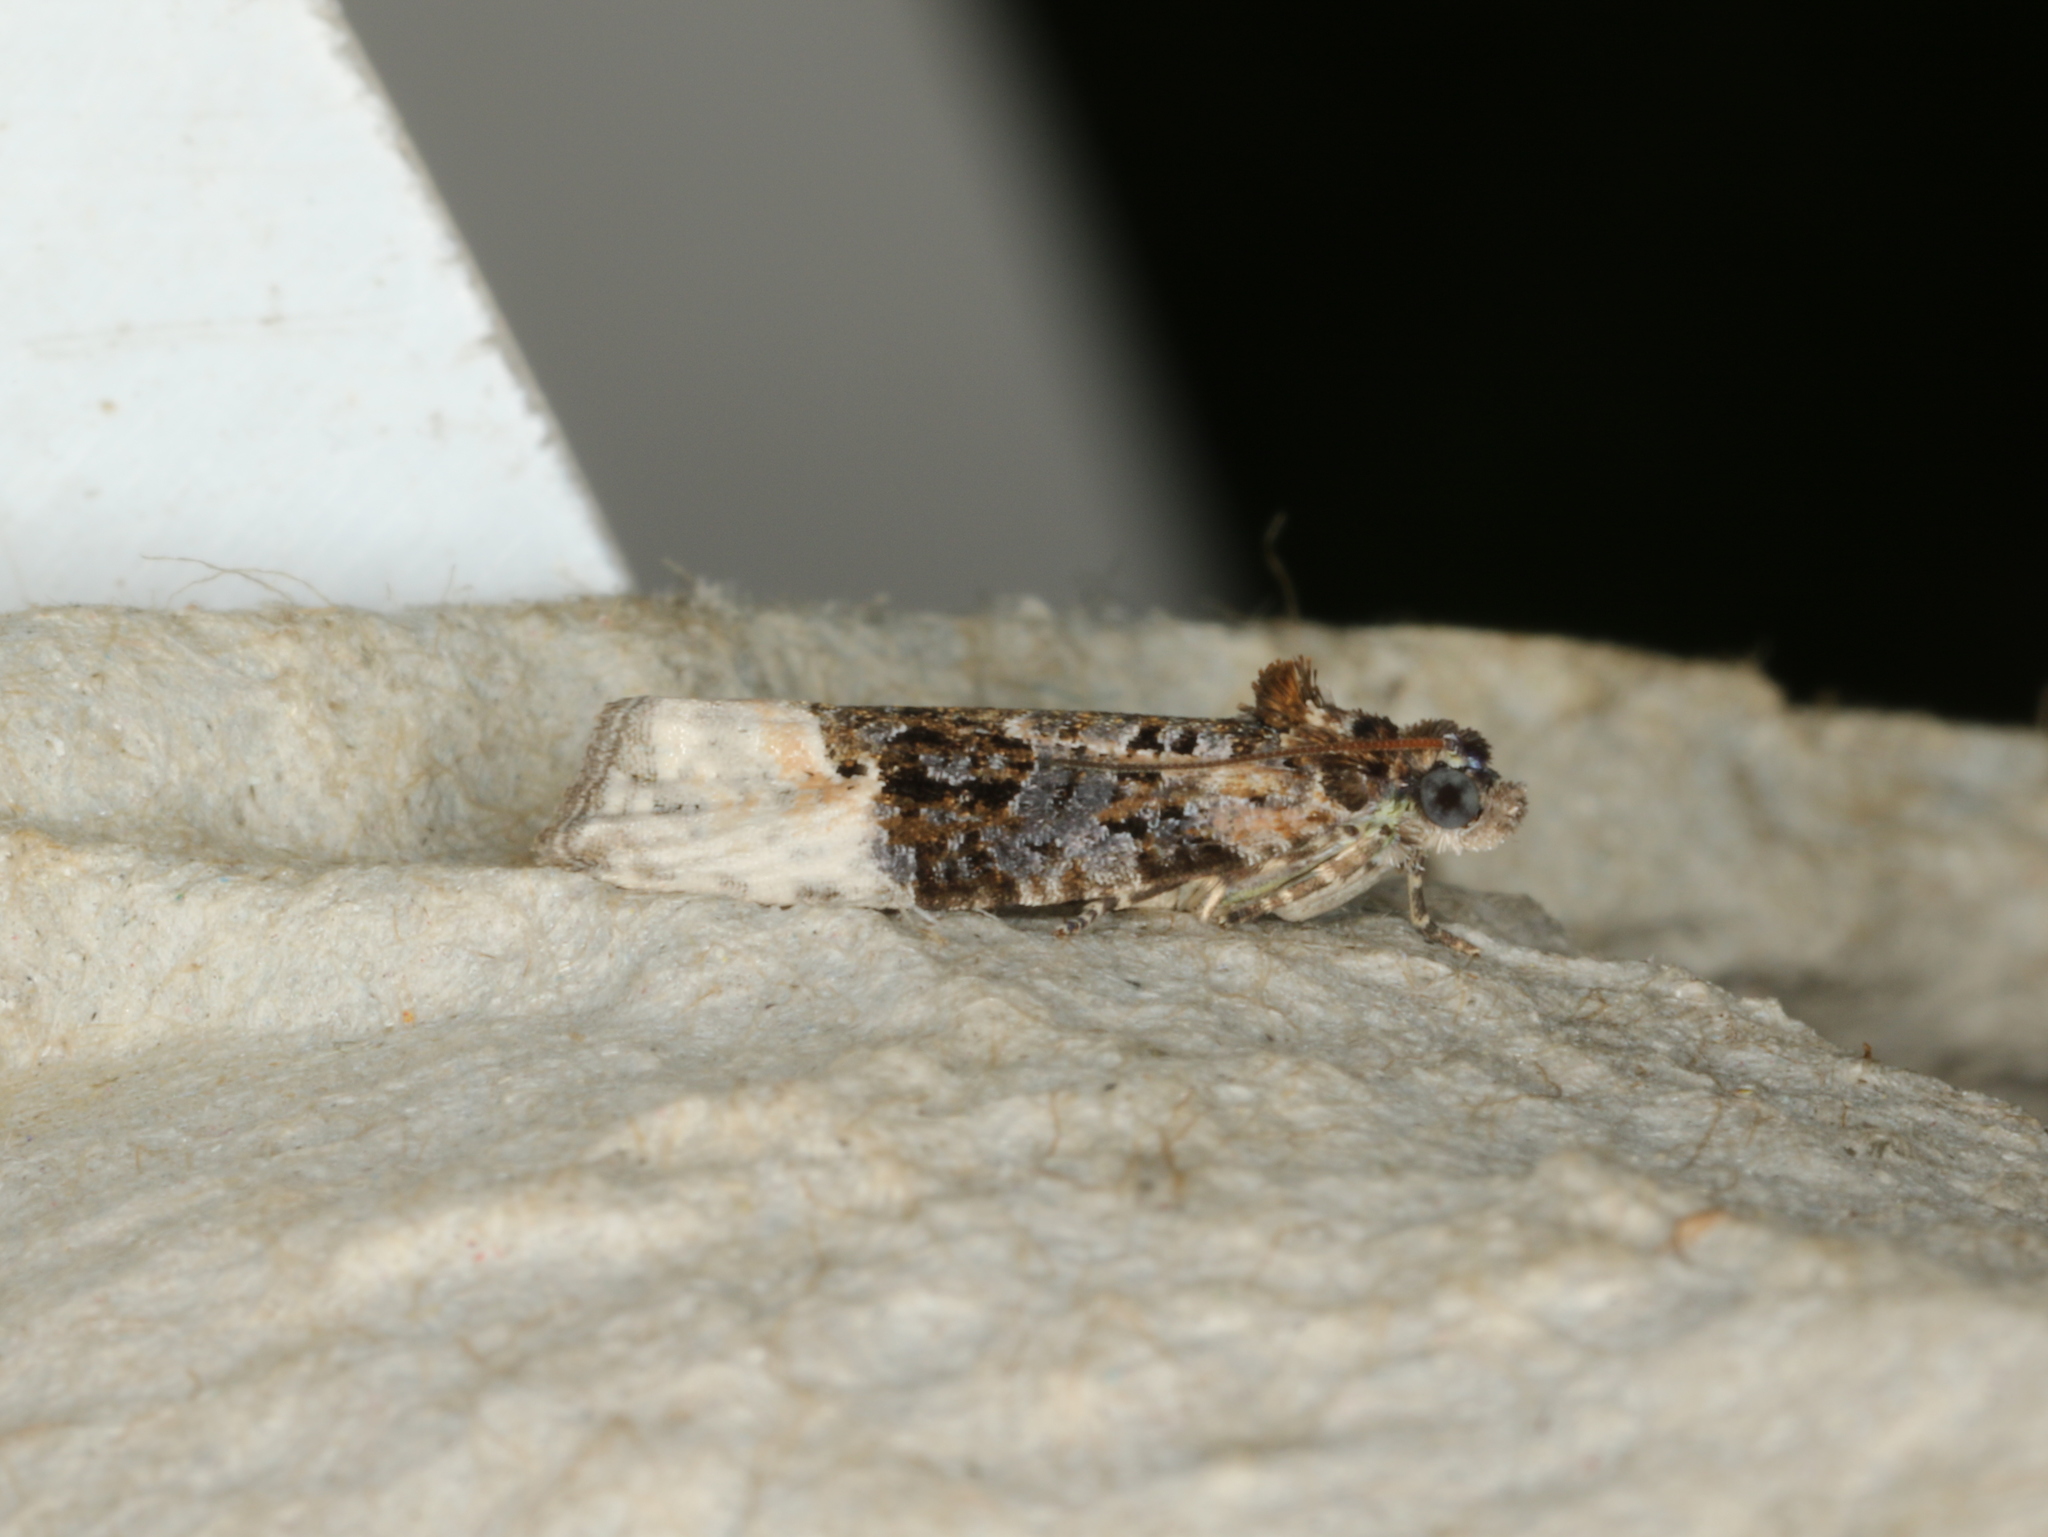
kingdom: Animalia
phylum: Arthropoda
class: Insecta
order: Lepidoptera
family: Tortricidae
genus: Apotomis
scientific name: Apotomis betuletana
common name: Birch marble
